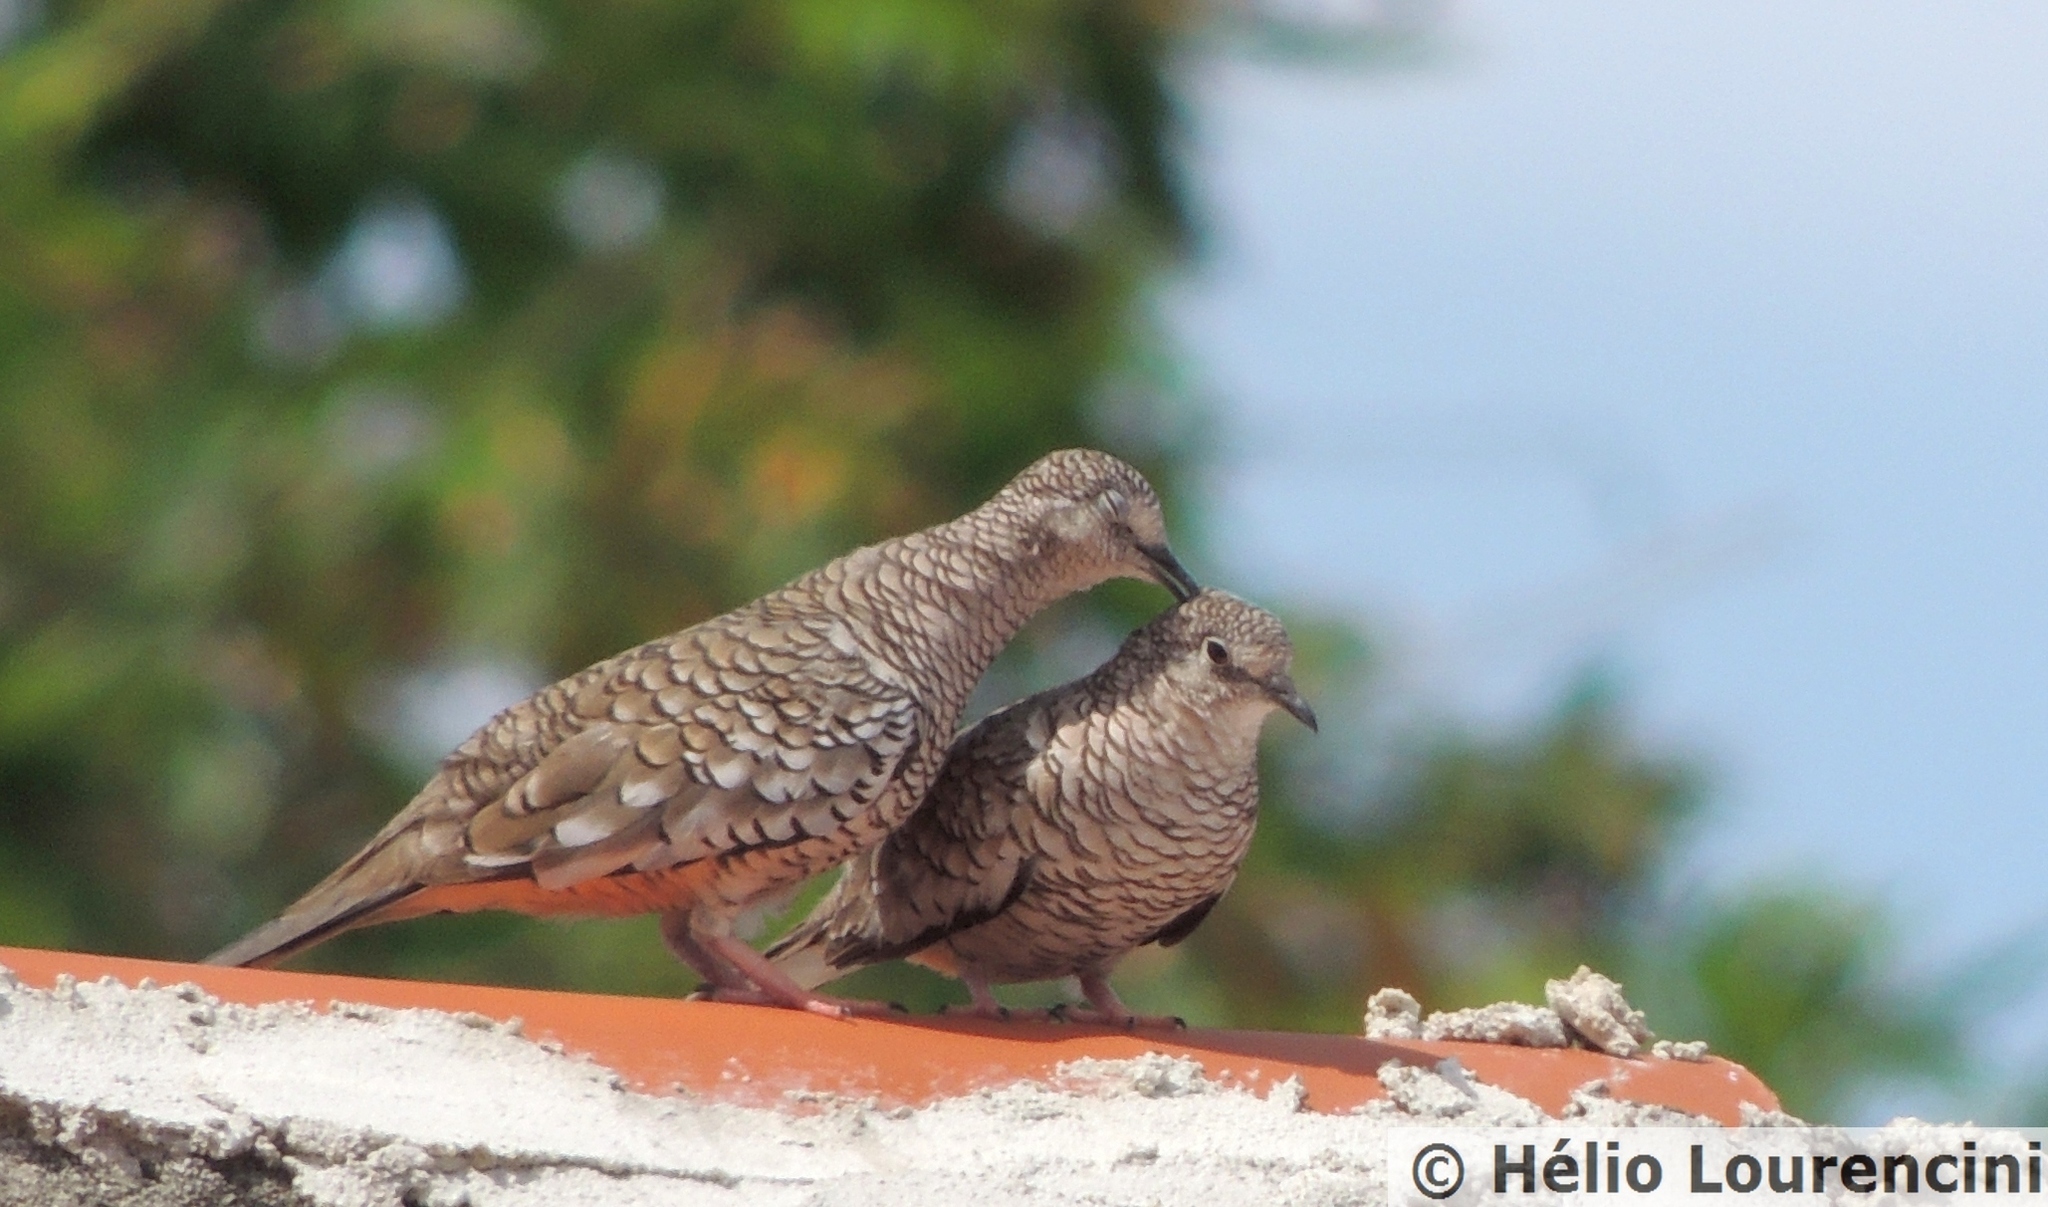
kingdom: Animalia
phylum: Chordata
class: Aves
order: Columbiformes
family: Columbidae
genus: Columbina
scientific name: Columbina squammata
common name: Scaled dove
